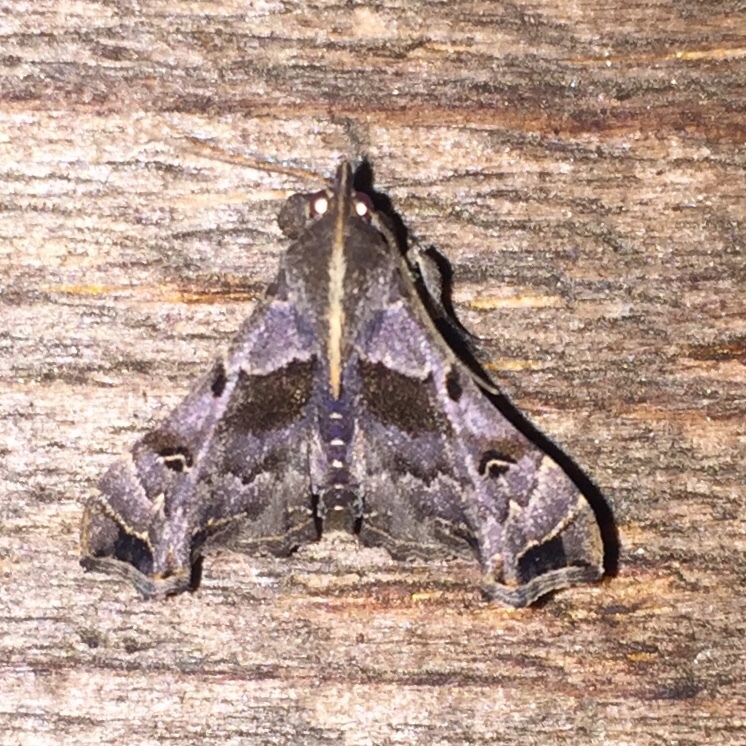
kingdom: Animalia
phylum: Arthropoda
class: Insecta
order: Lepidoptera
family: Erebidae
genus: Palthis
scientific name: Palthis asopialis
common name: Faint-spotted palthis moth
